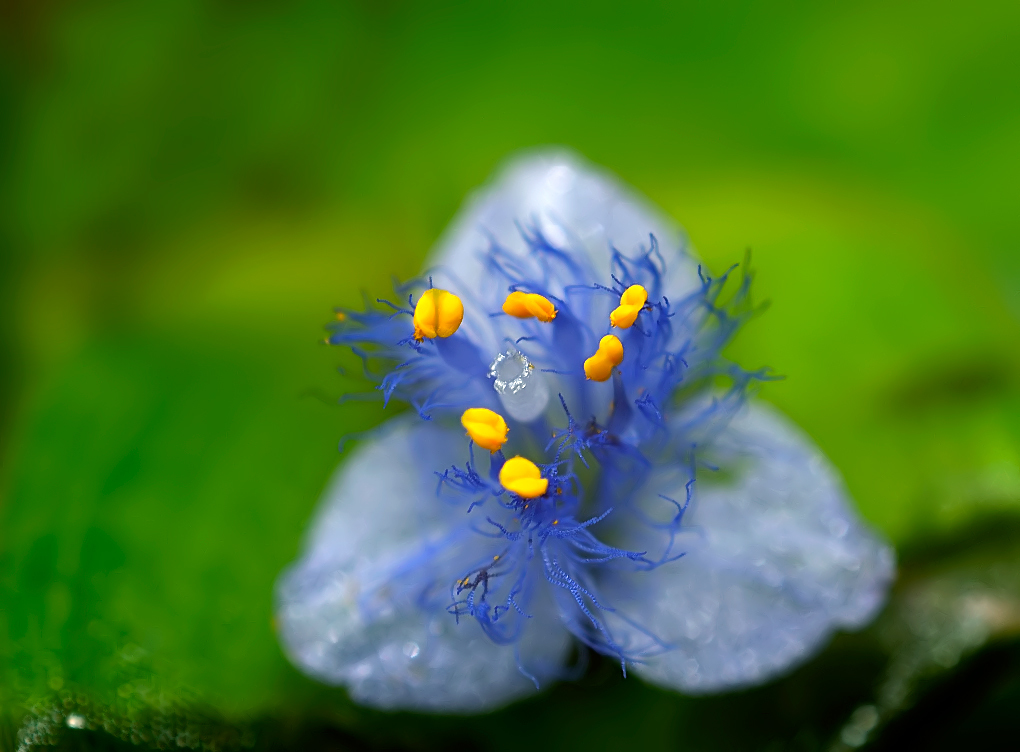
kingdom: Plantae
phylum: Tracheophyta
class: Liliopsida
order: Commelinales
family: Commelinaceae
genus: Cyanotis
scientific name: Cyanotis cristata
